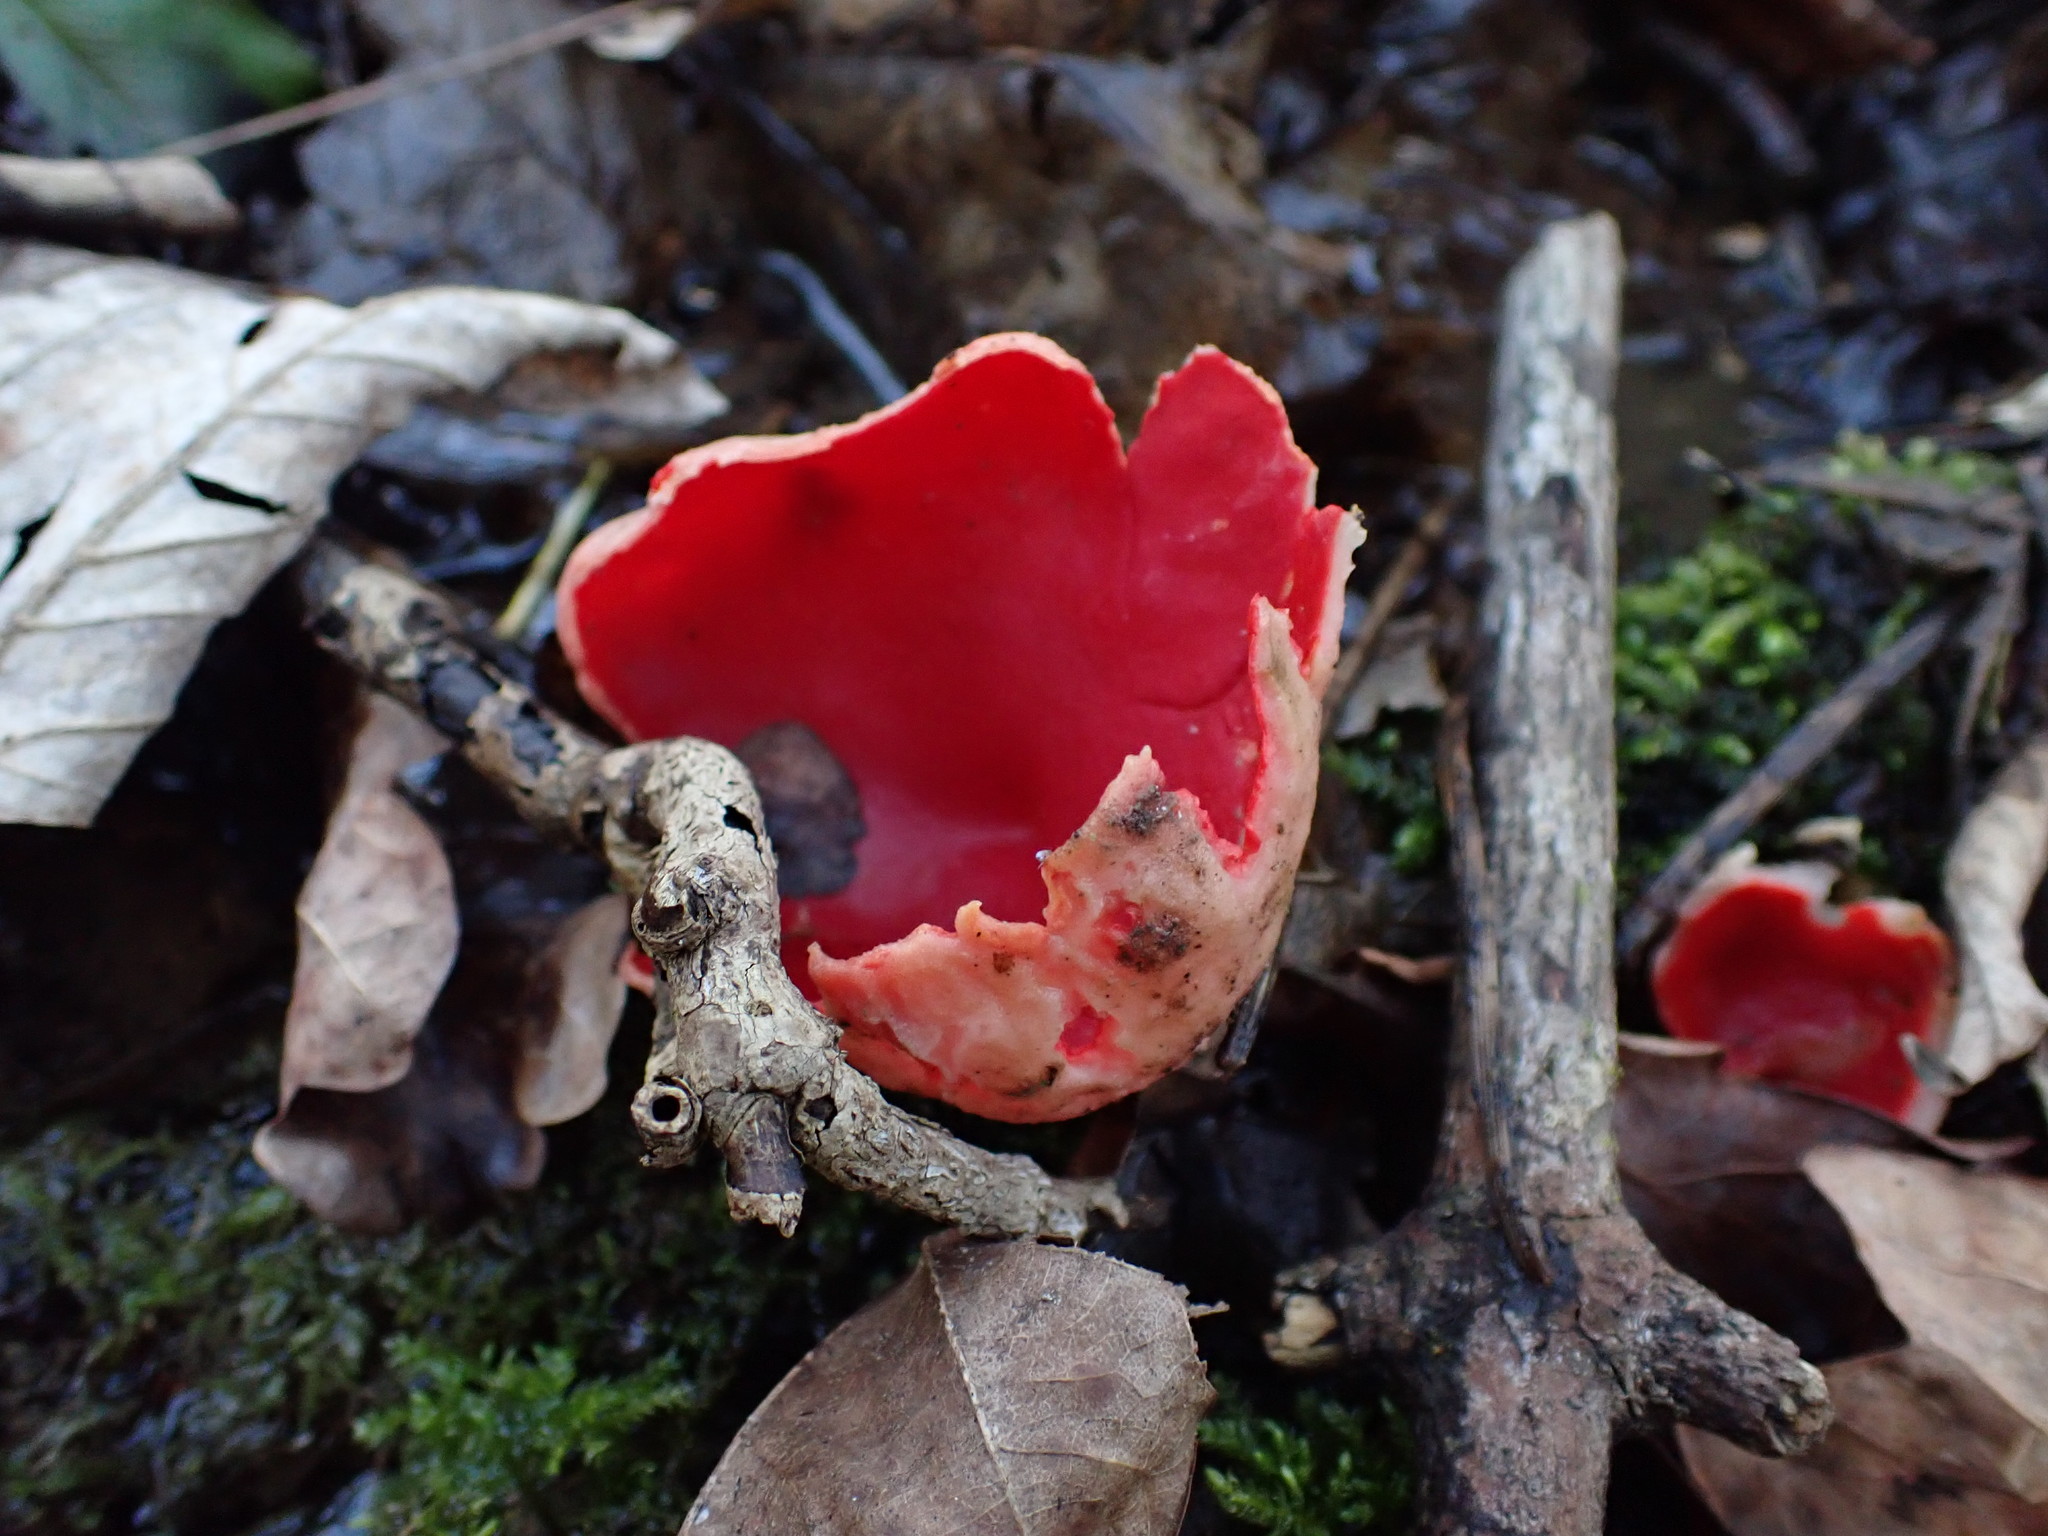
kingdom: Fungi
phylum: Ascomycota
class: Pezizomycetes
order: Pezizales
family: Sarcoscyphaceae
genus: Sarcoscypha
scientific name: Sarcoscypha
